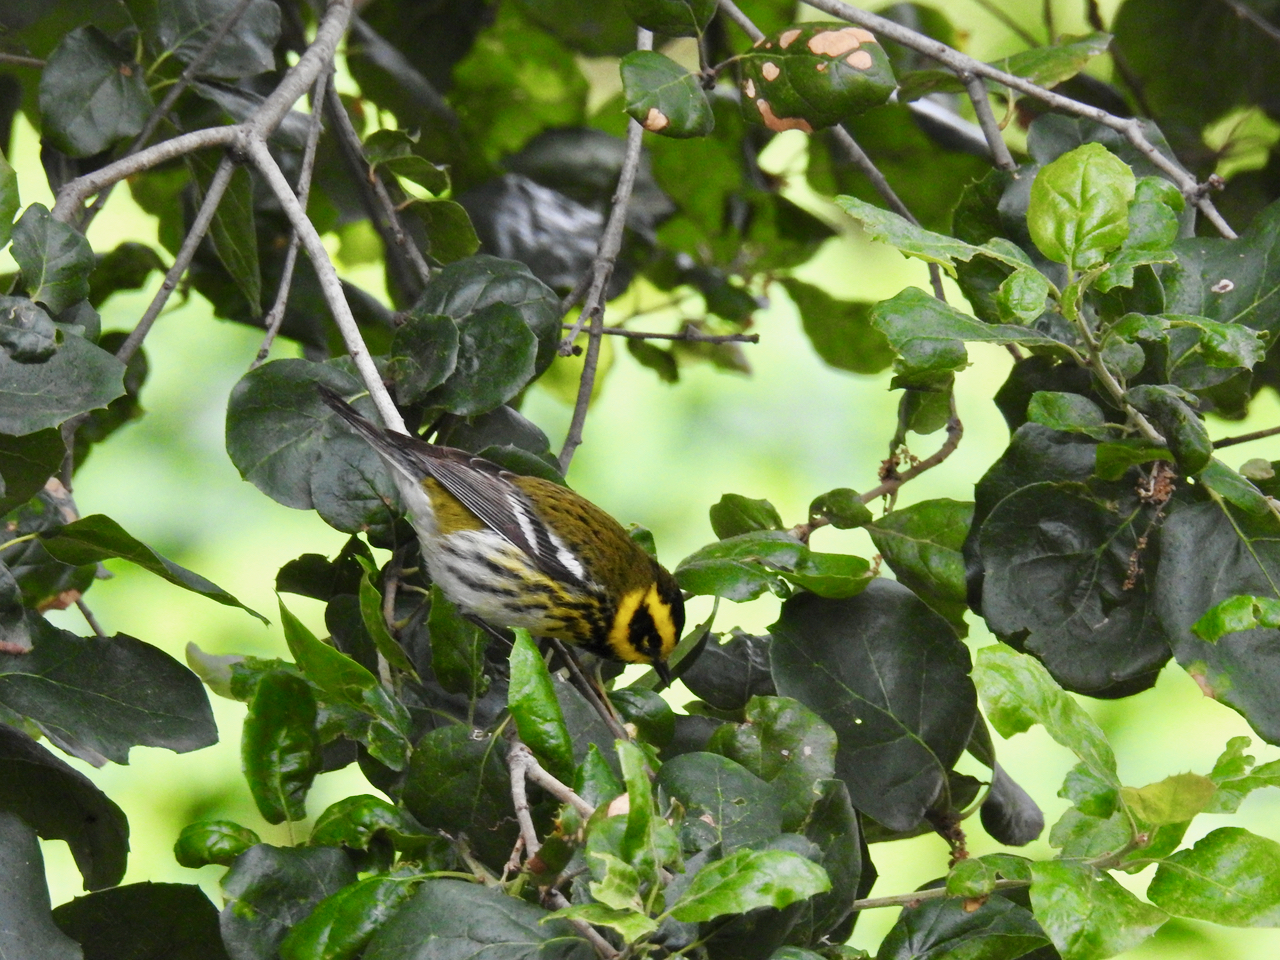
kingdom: Animalia
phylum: Chordata
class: Aves
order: Passeriformes
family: Parulidae
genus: Setophaga
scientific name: Setophaga townsendi
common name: Townsend's warbler
